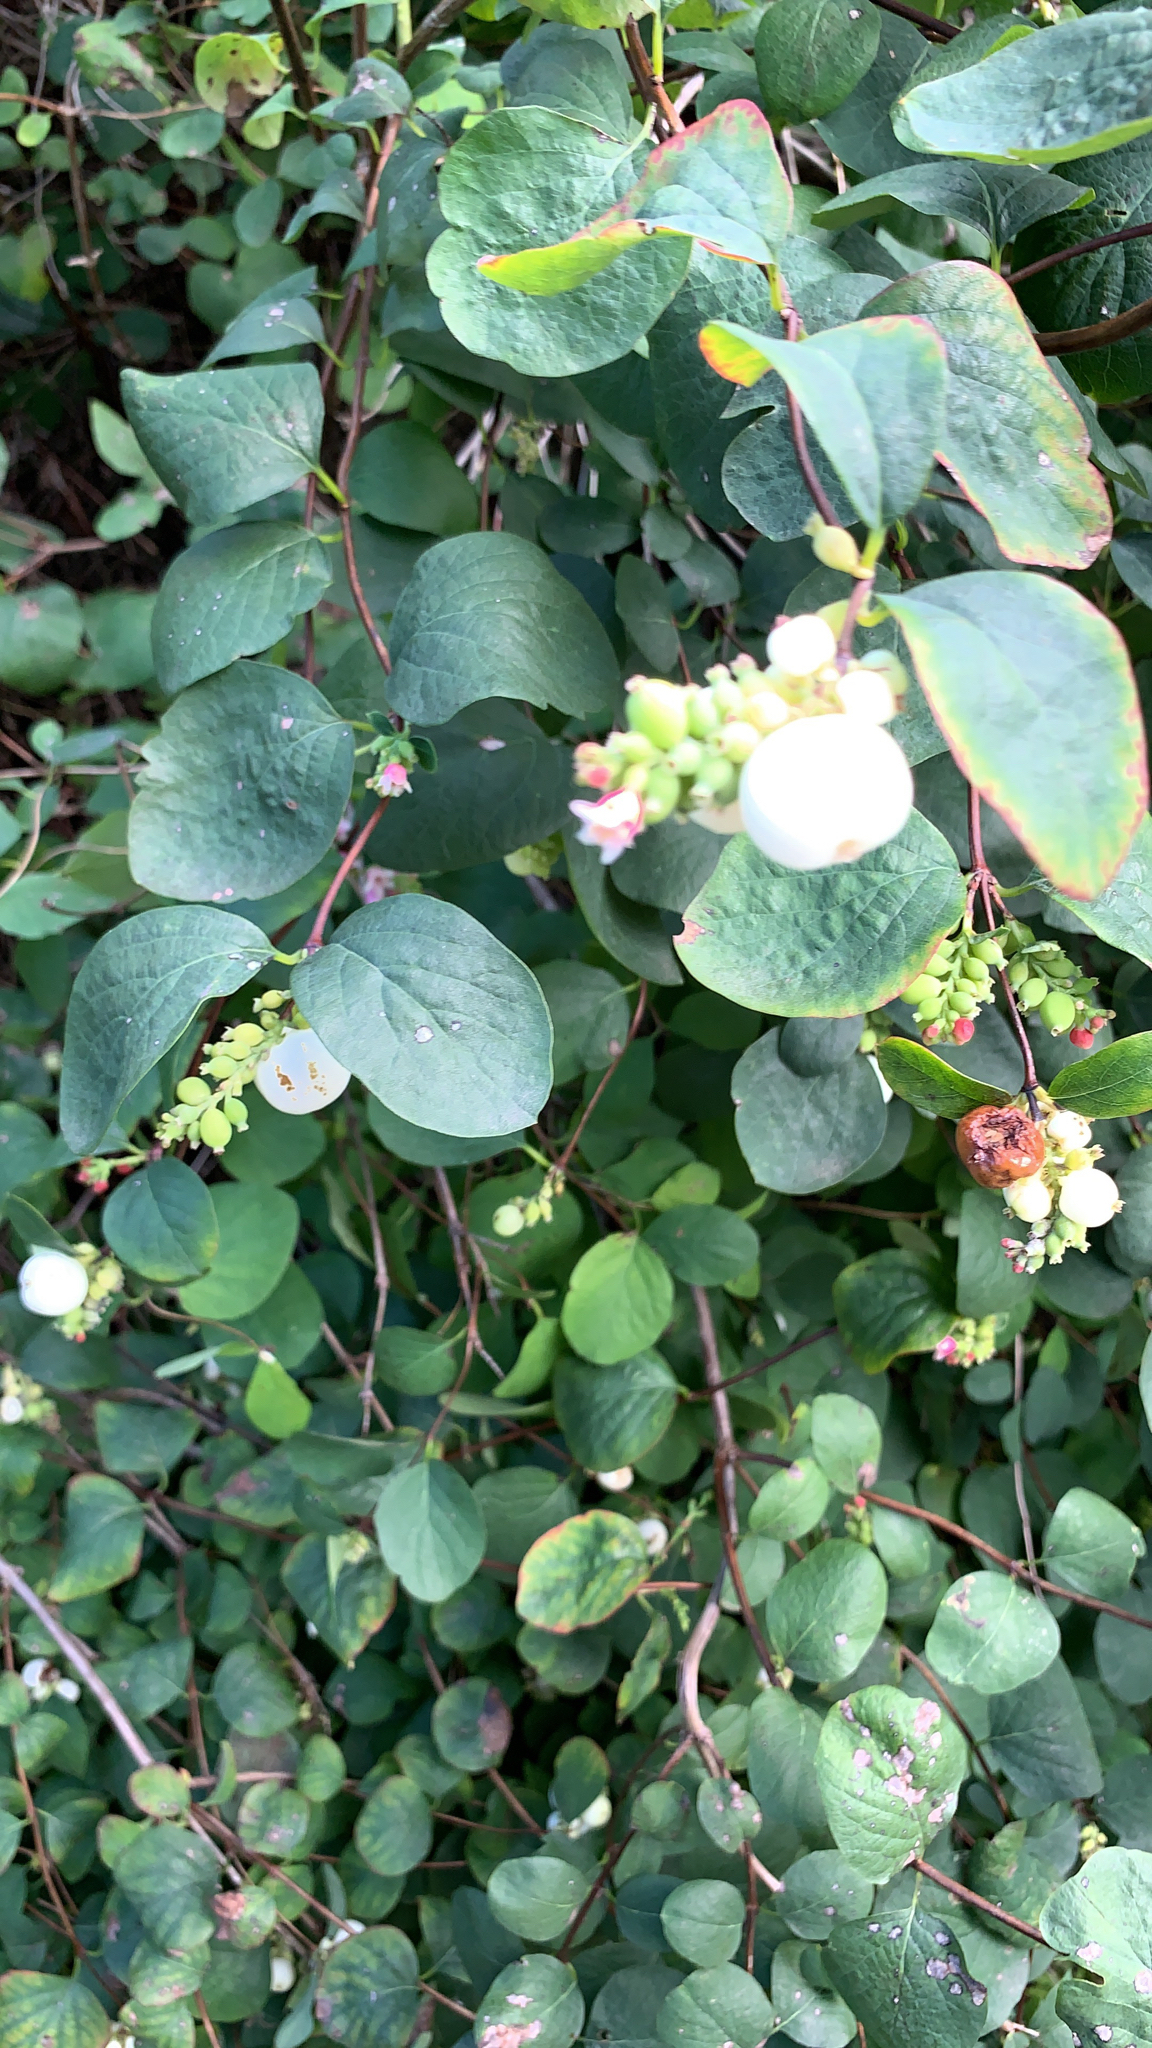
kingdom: Plantae
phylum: Tracheophyta
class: Magnoliopsida
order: Dipsacales
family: Caprifoliaceae
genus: Symphoricarpos
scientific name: Symphoricarpos albus
